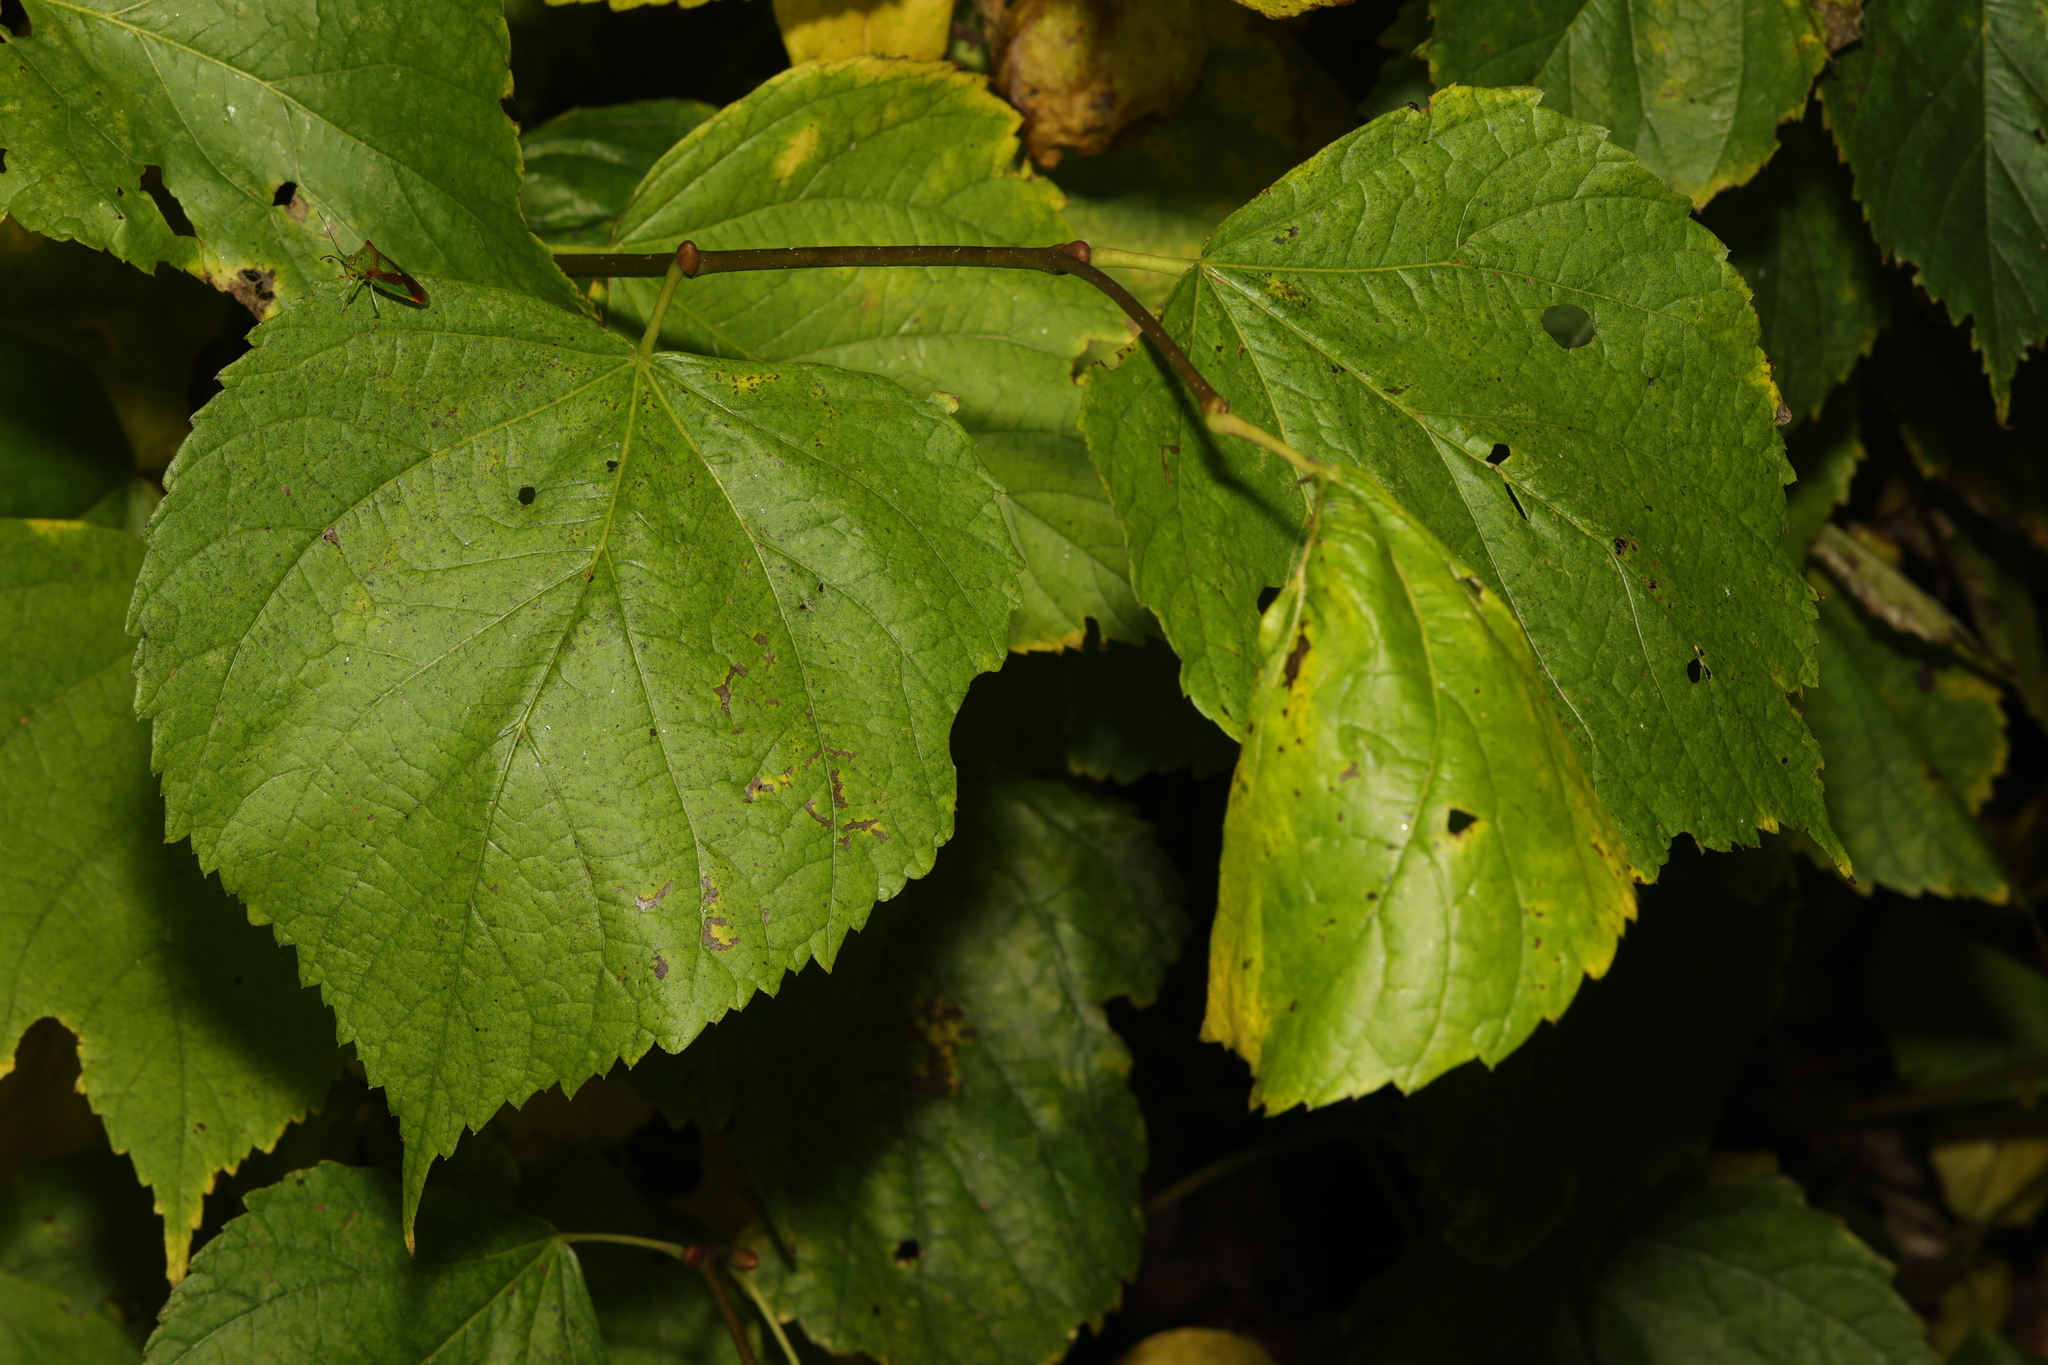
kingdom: Plantae
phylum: Tracheophyta
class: Magnoliopsida
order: Malvales
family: Malvaceae
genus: Tilia
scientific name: Tilia europaea
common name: European linden
